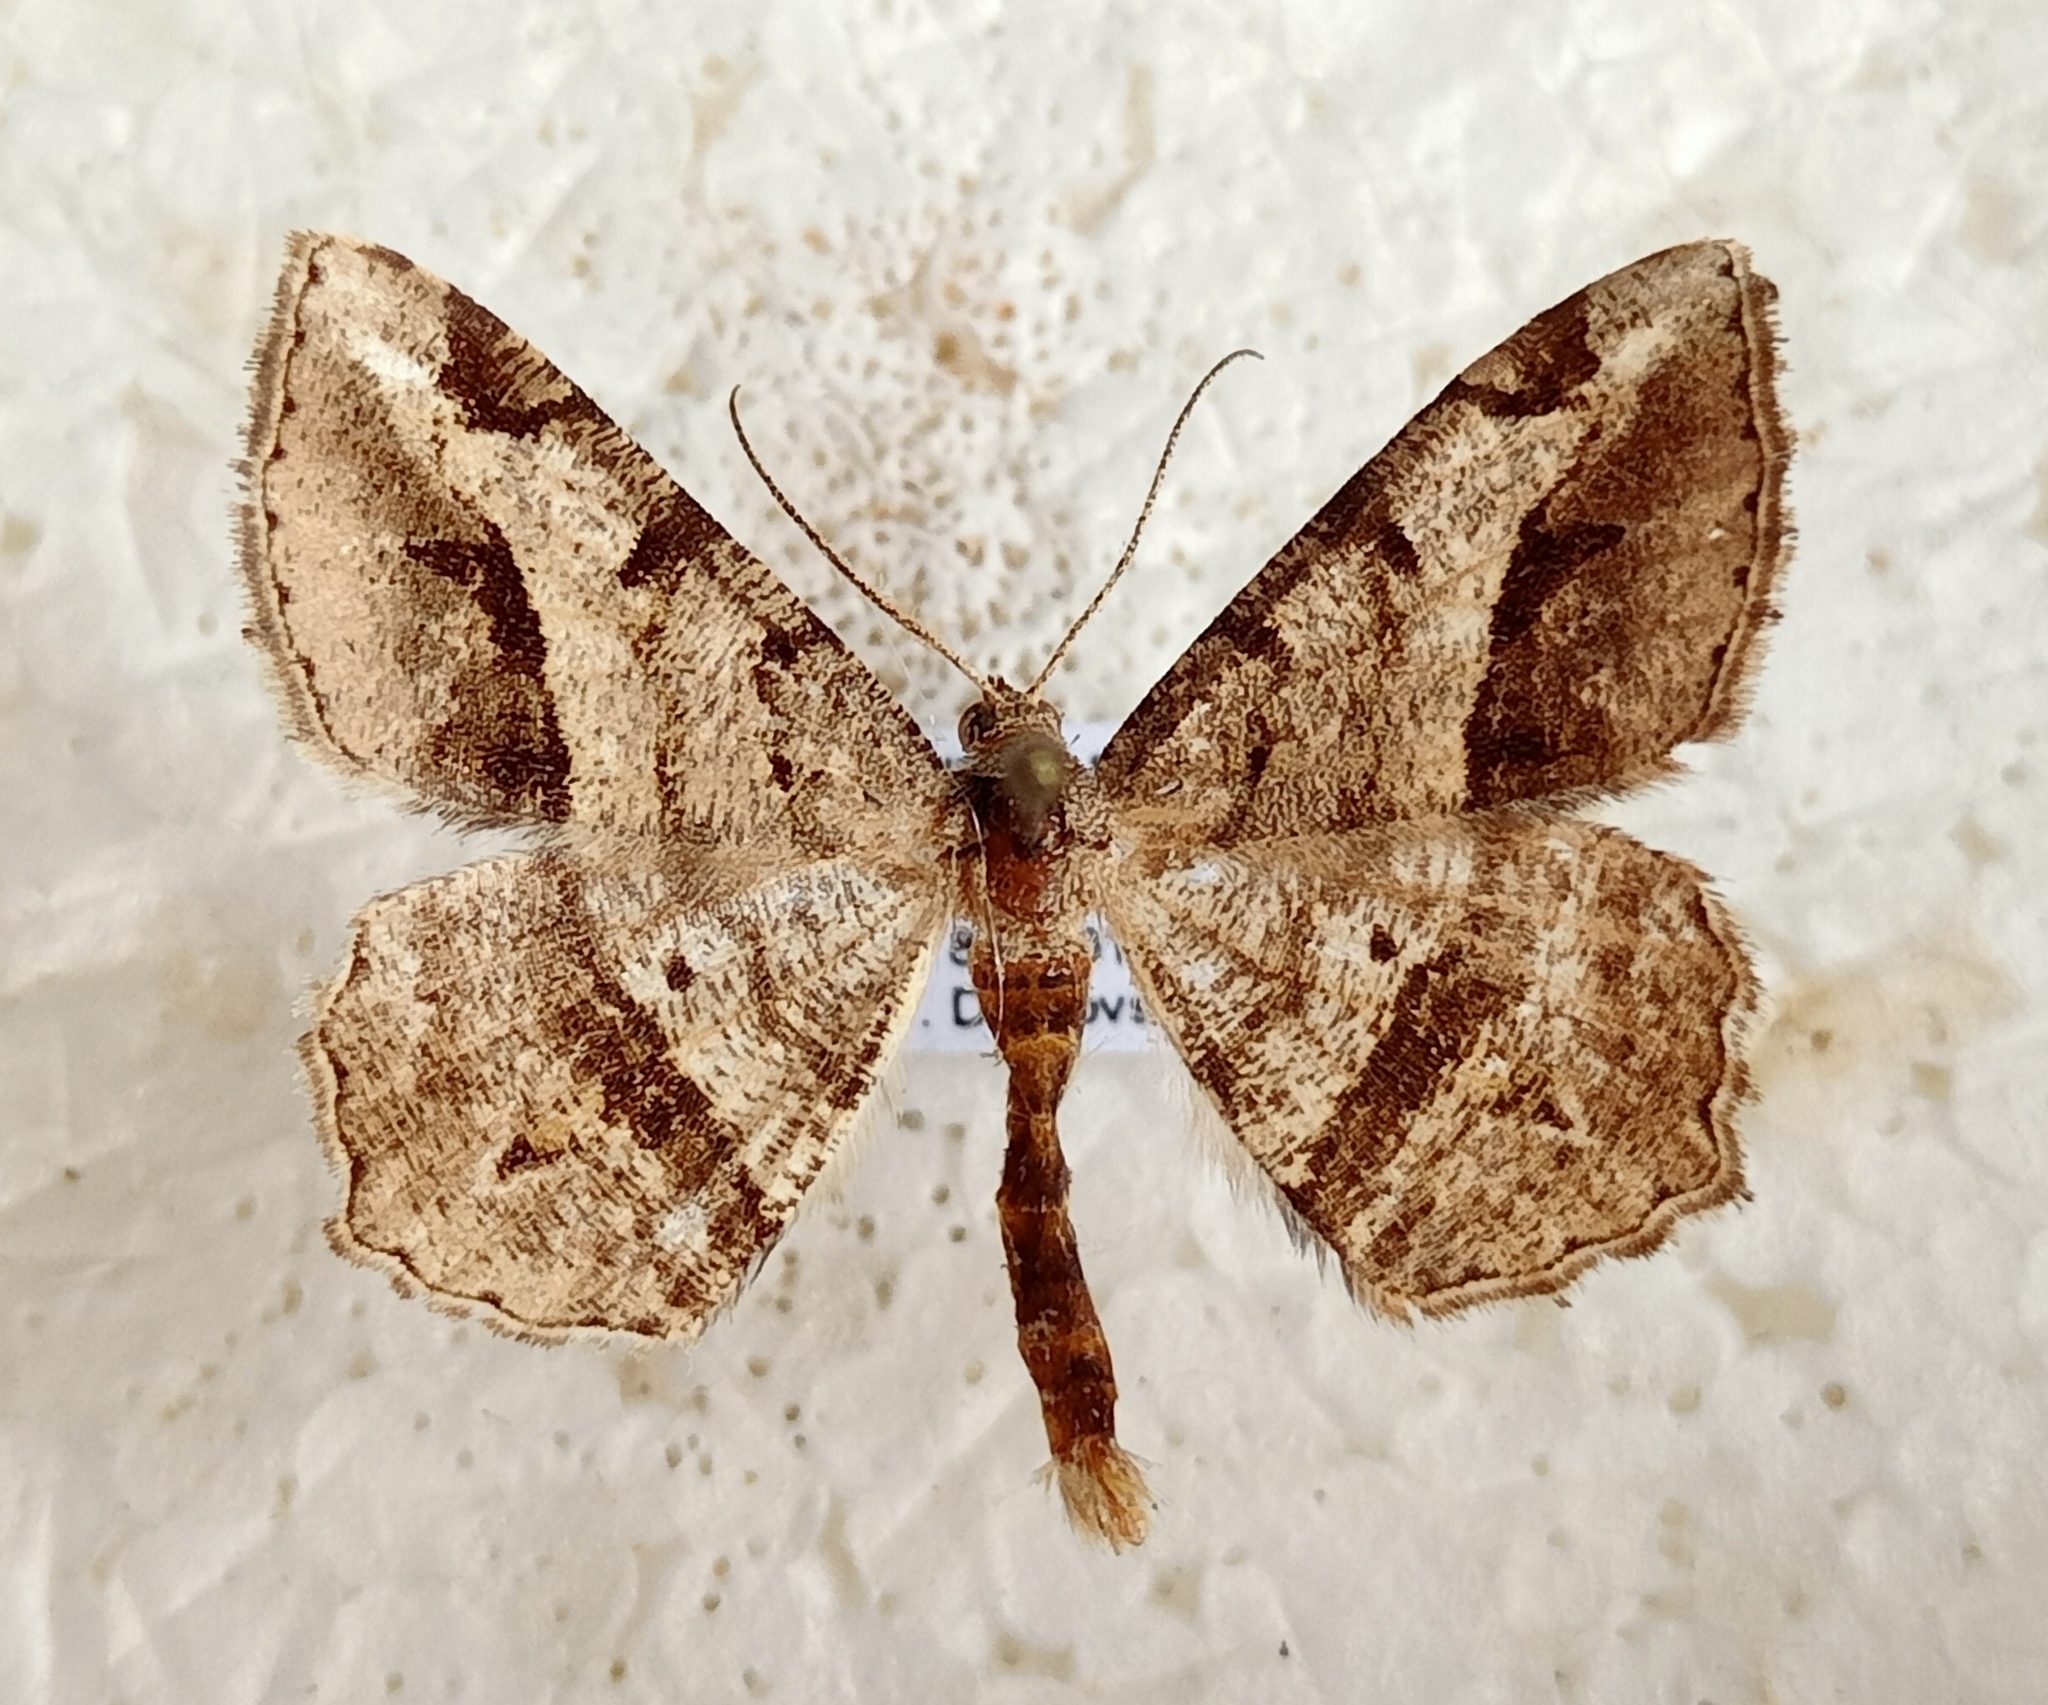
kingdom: Animalia
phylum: Arthropoda
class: Insecta
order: Lepidoptera
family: Geometridae
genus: Chiasmia
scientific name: Chiasmia aestimaria
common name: Tamarisk peacock
